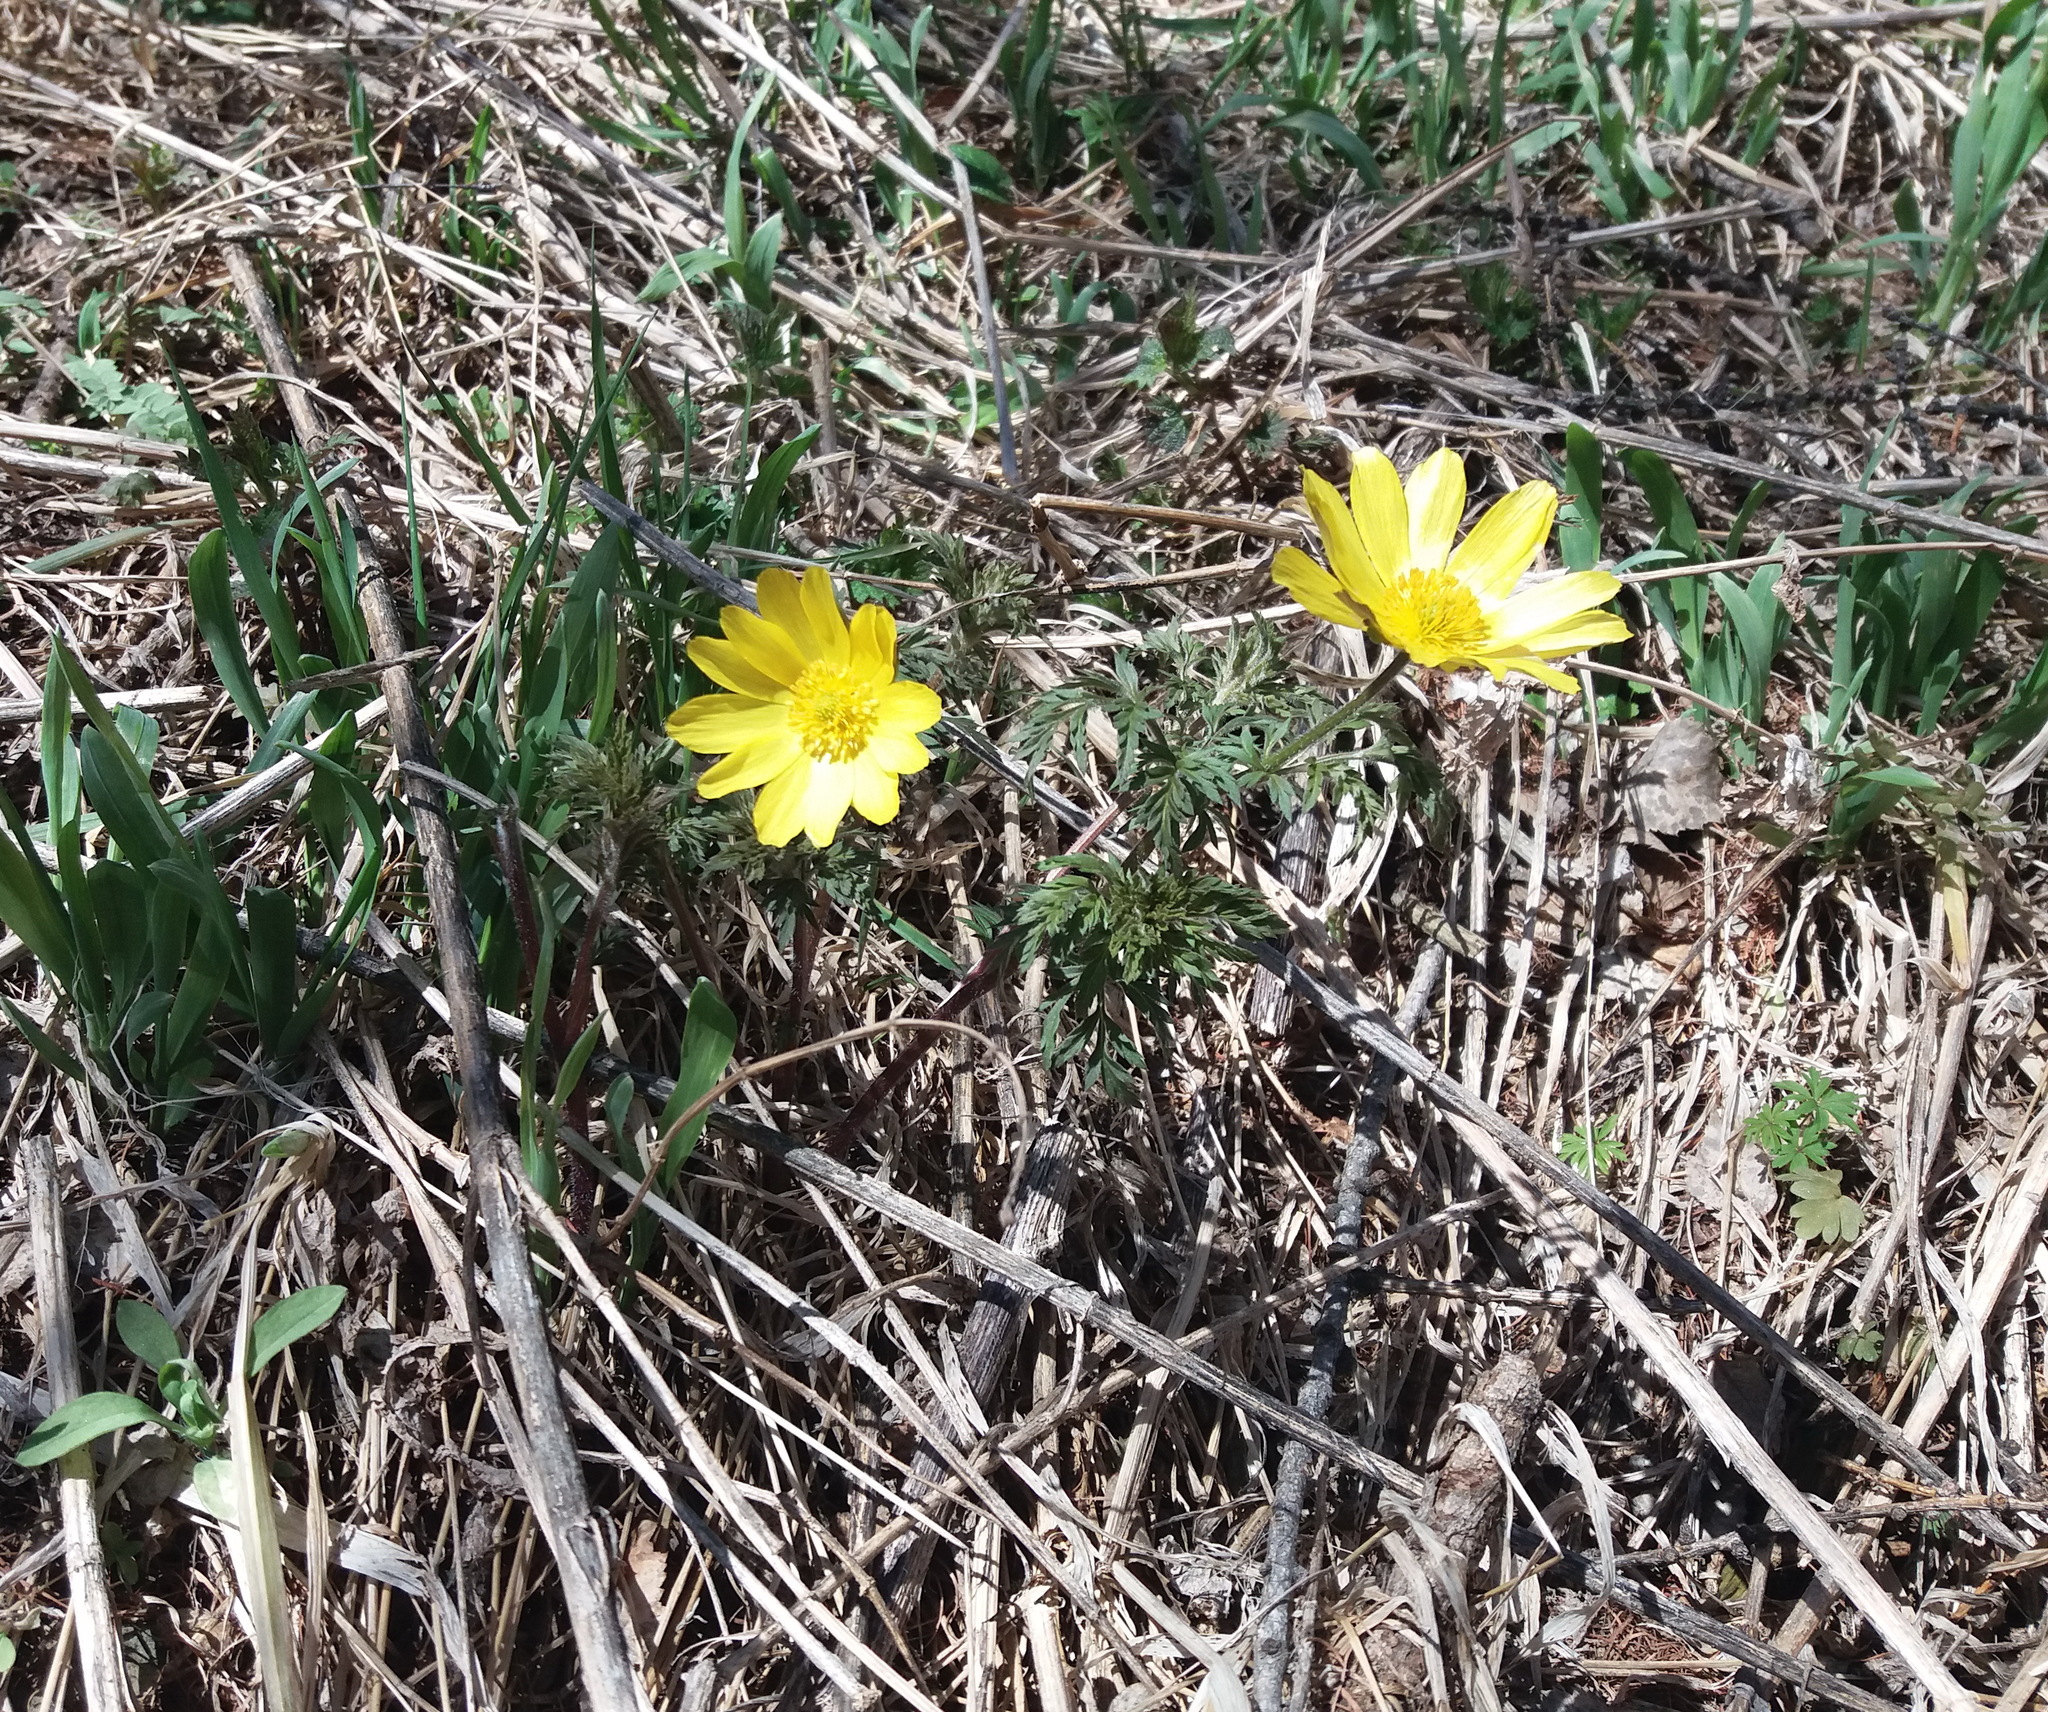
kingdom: Plantae
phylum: Tracheophyta
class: Magnoliopsida
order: Ranunculales
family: Ranunculaceae
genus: Adonis
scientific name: Adonis
